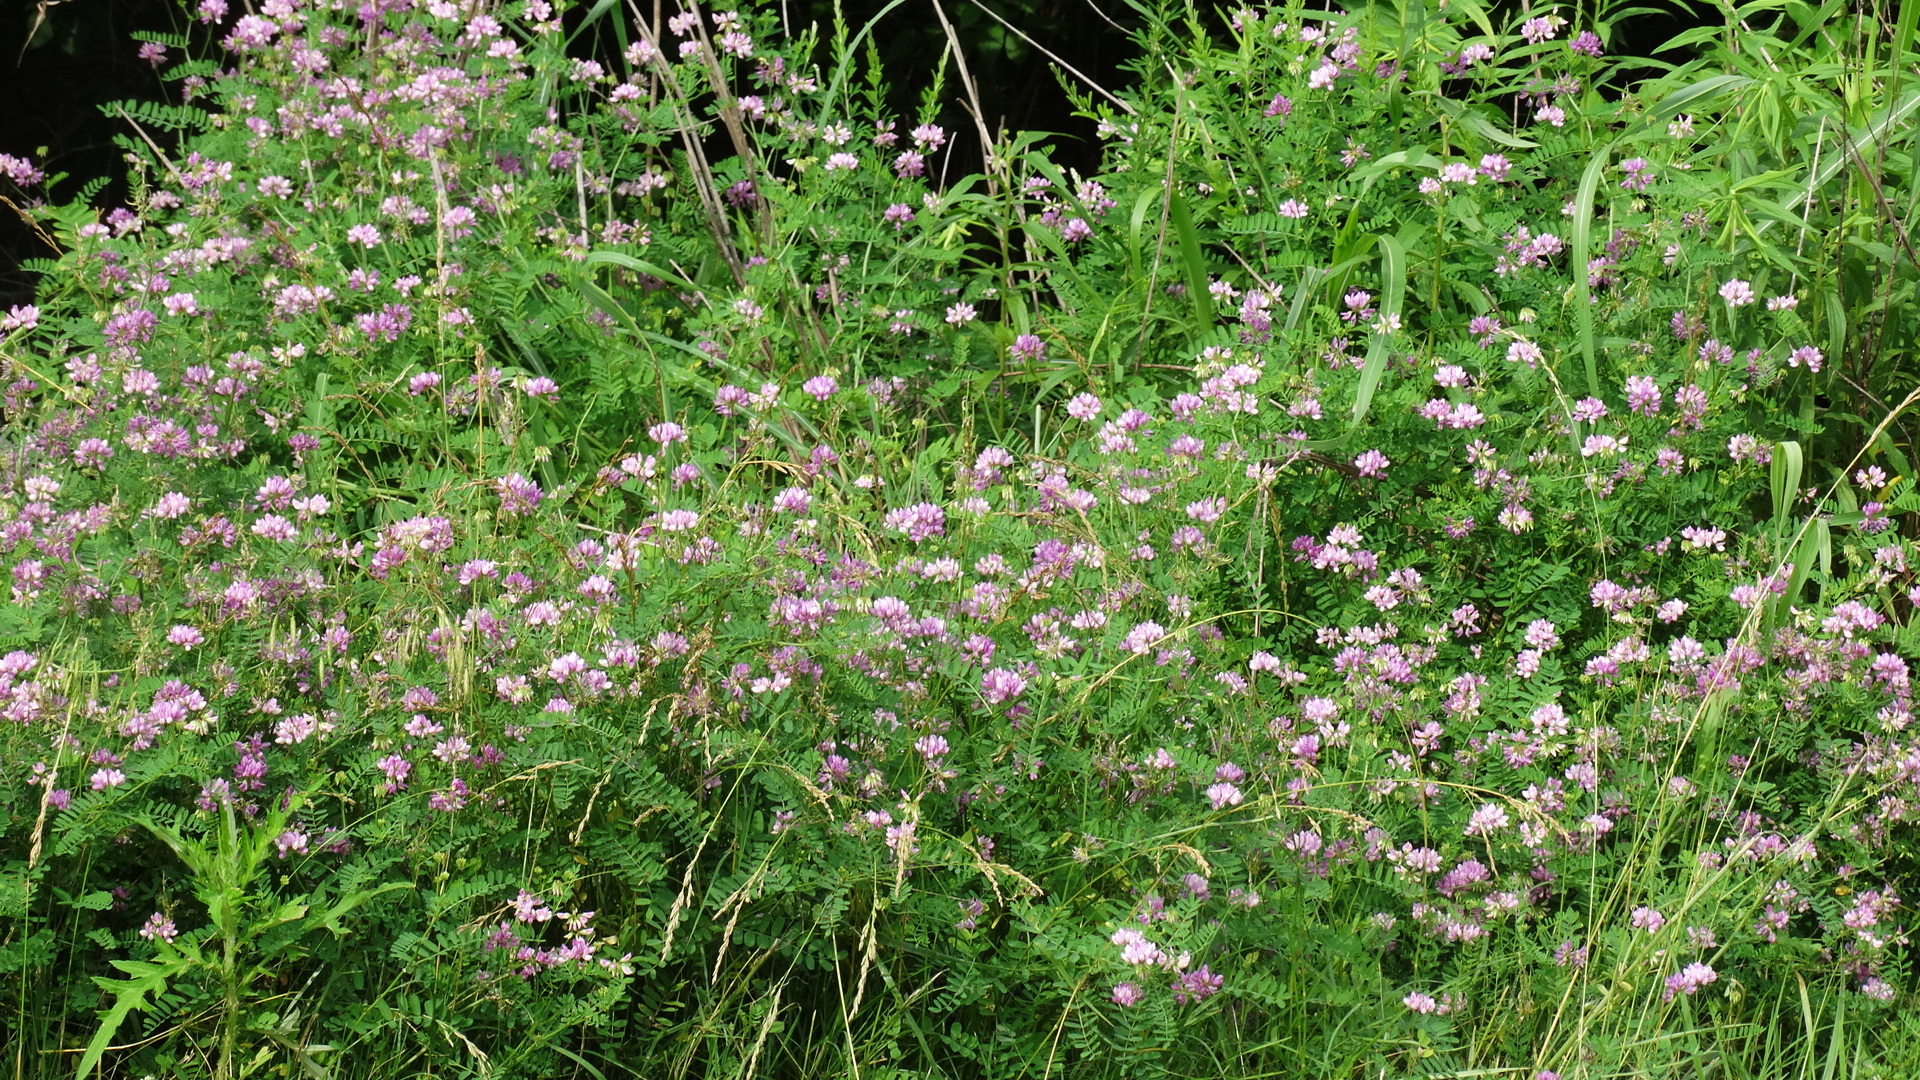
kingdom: Plantae
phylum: Tracheophyta
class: Magnoliopsida
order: Fabales
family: Fabaceae
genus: Coronilla
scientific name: Coronilla varia
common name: Crownvetch
